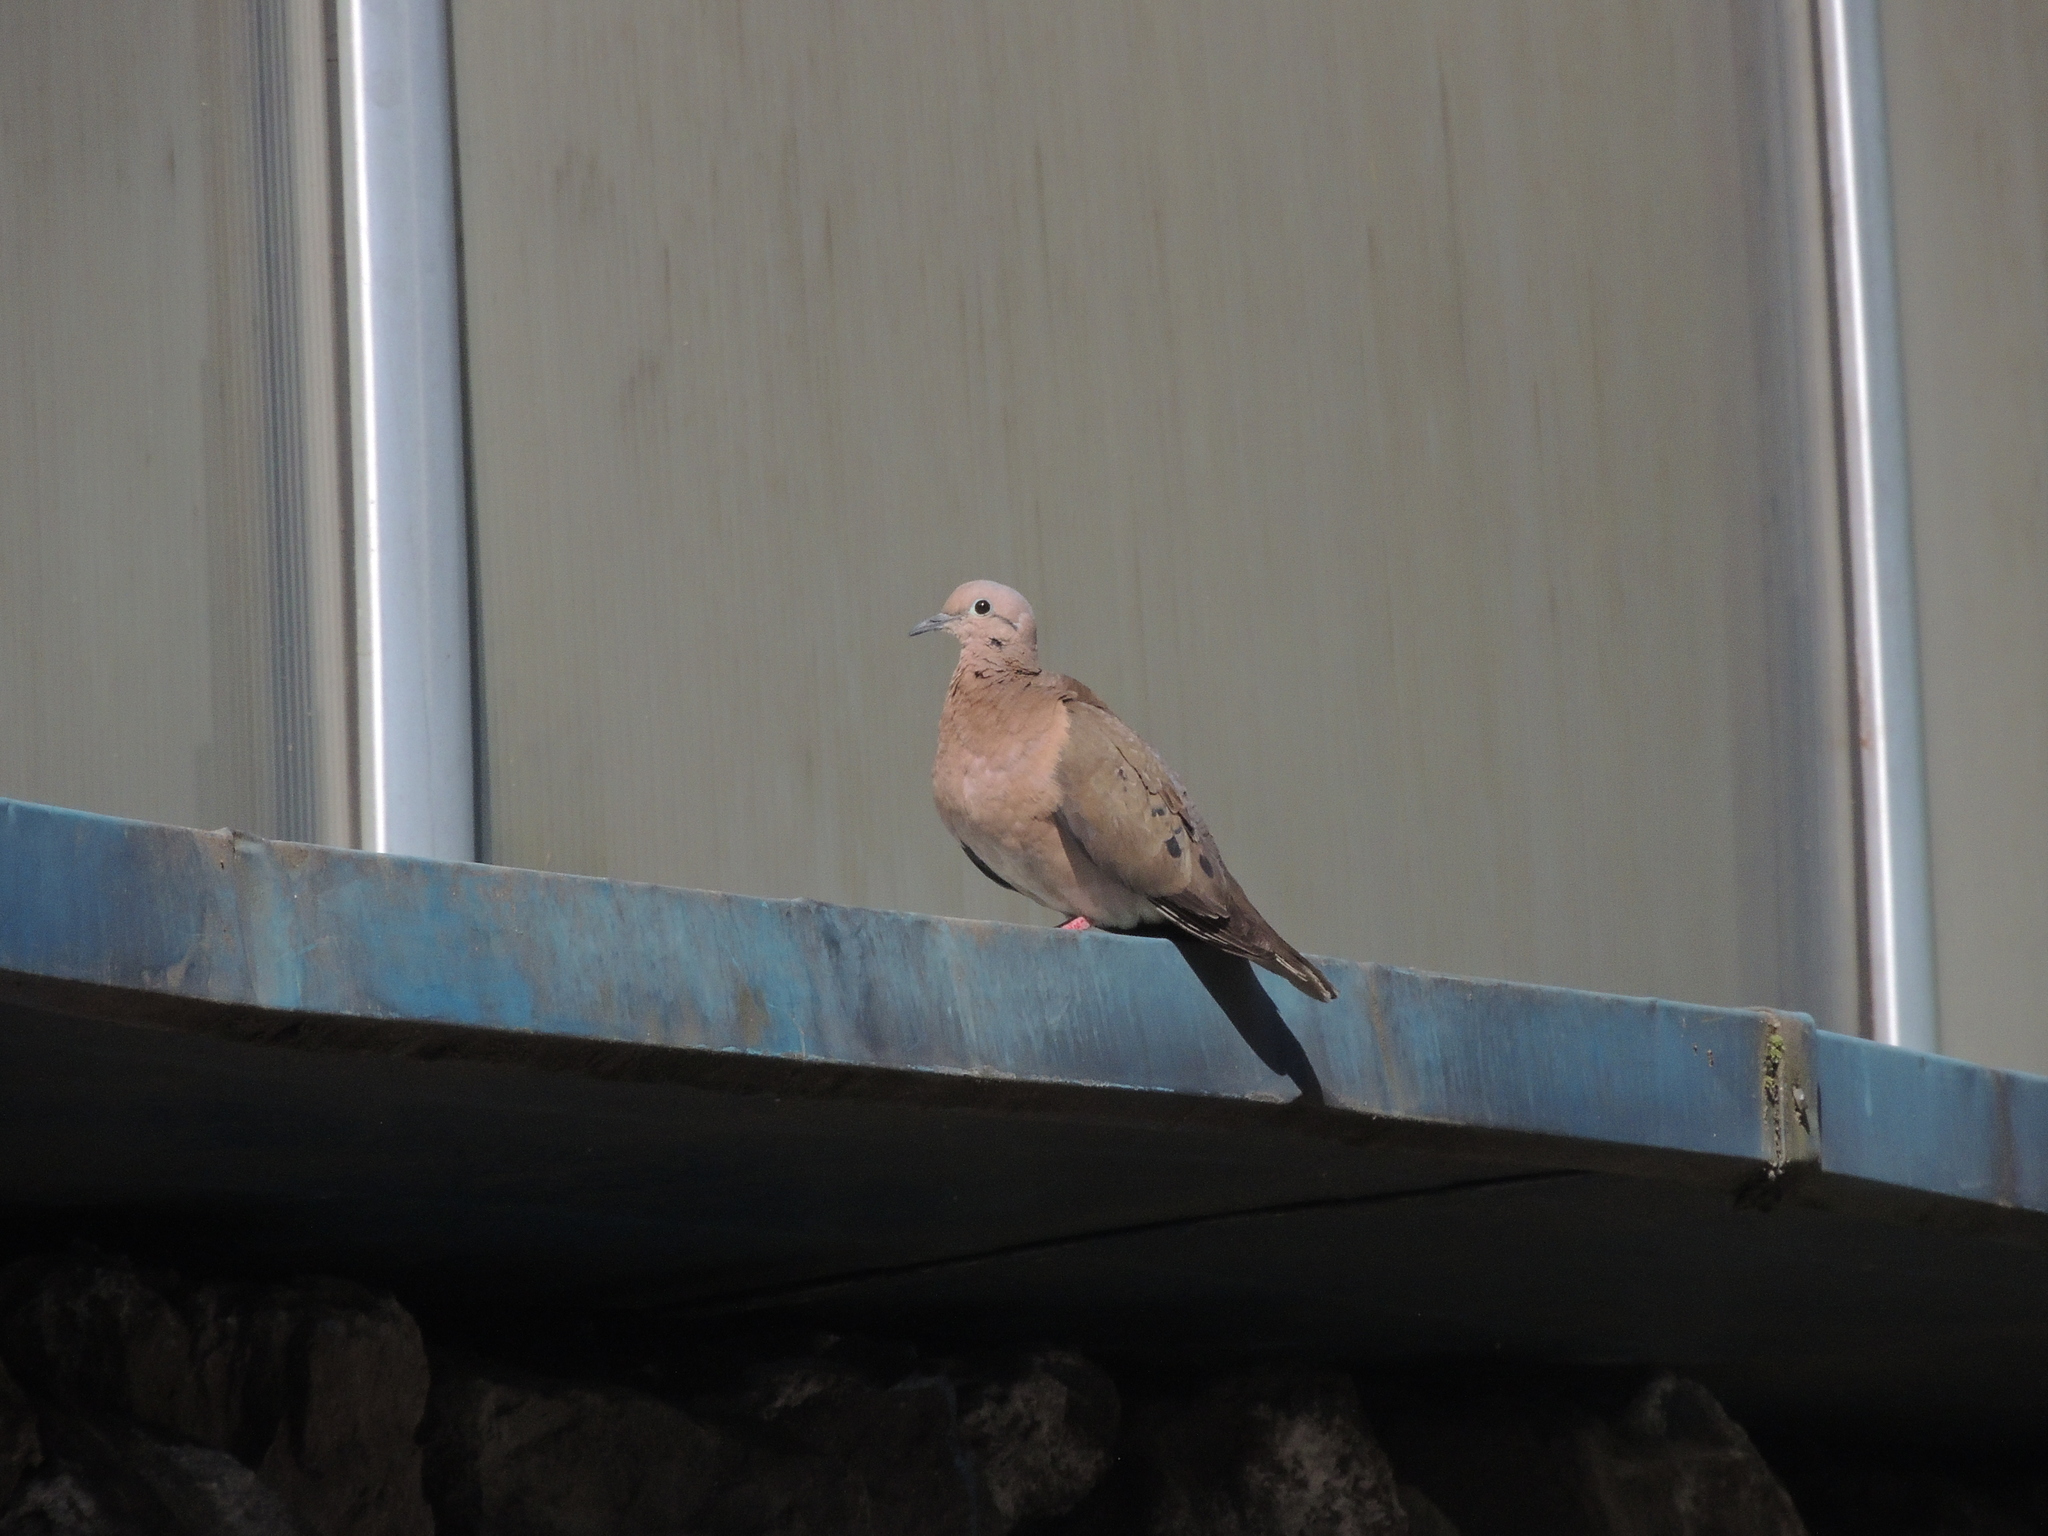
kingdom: Animalia
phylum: Chordata
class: Aves
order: Columbiformes
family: Columbidae
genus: Zenaida
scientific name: Zenaida auriculata
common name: Eared dove
